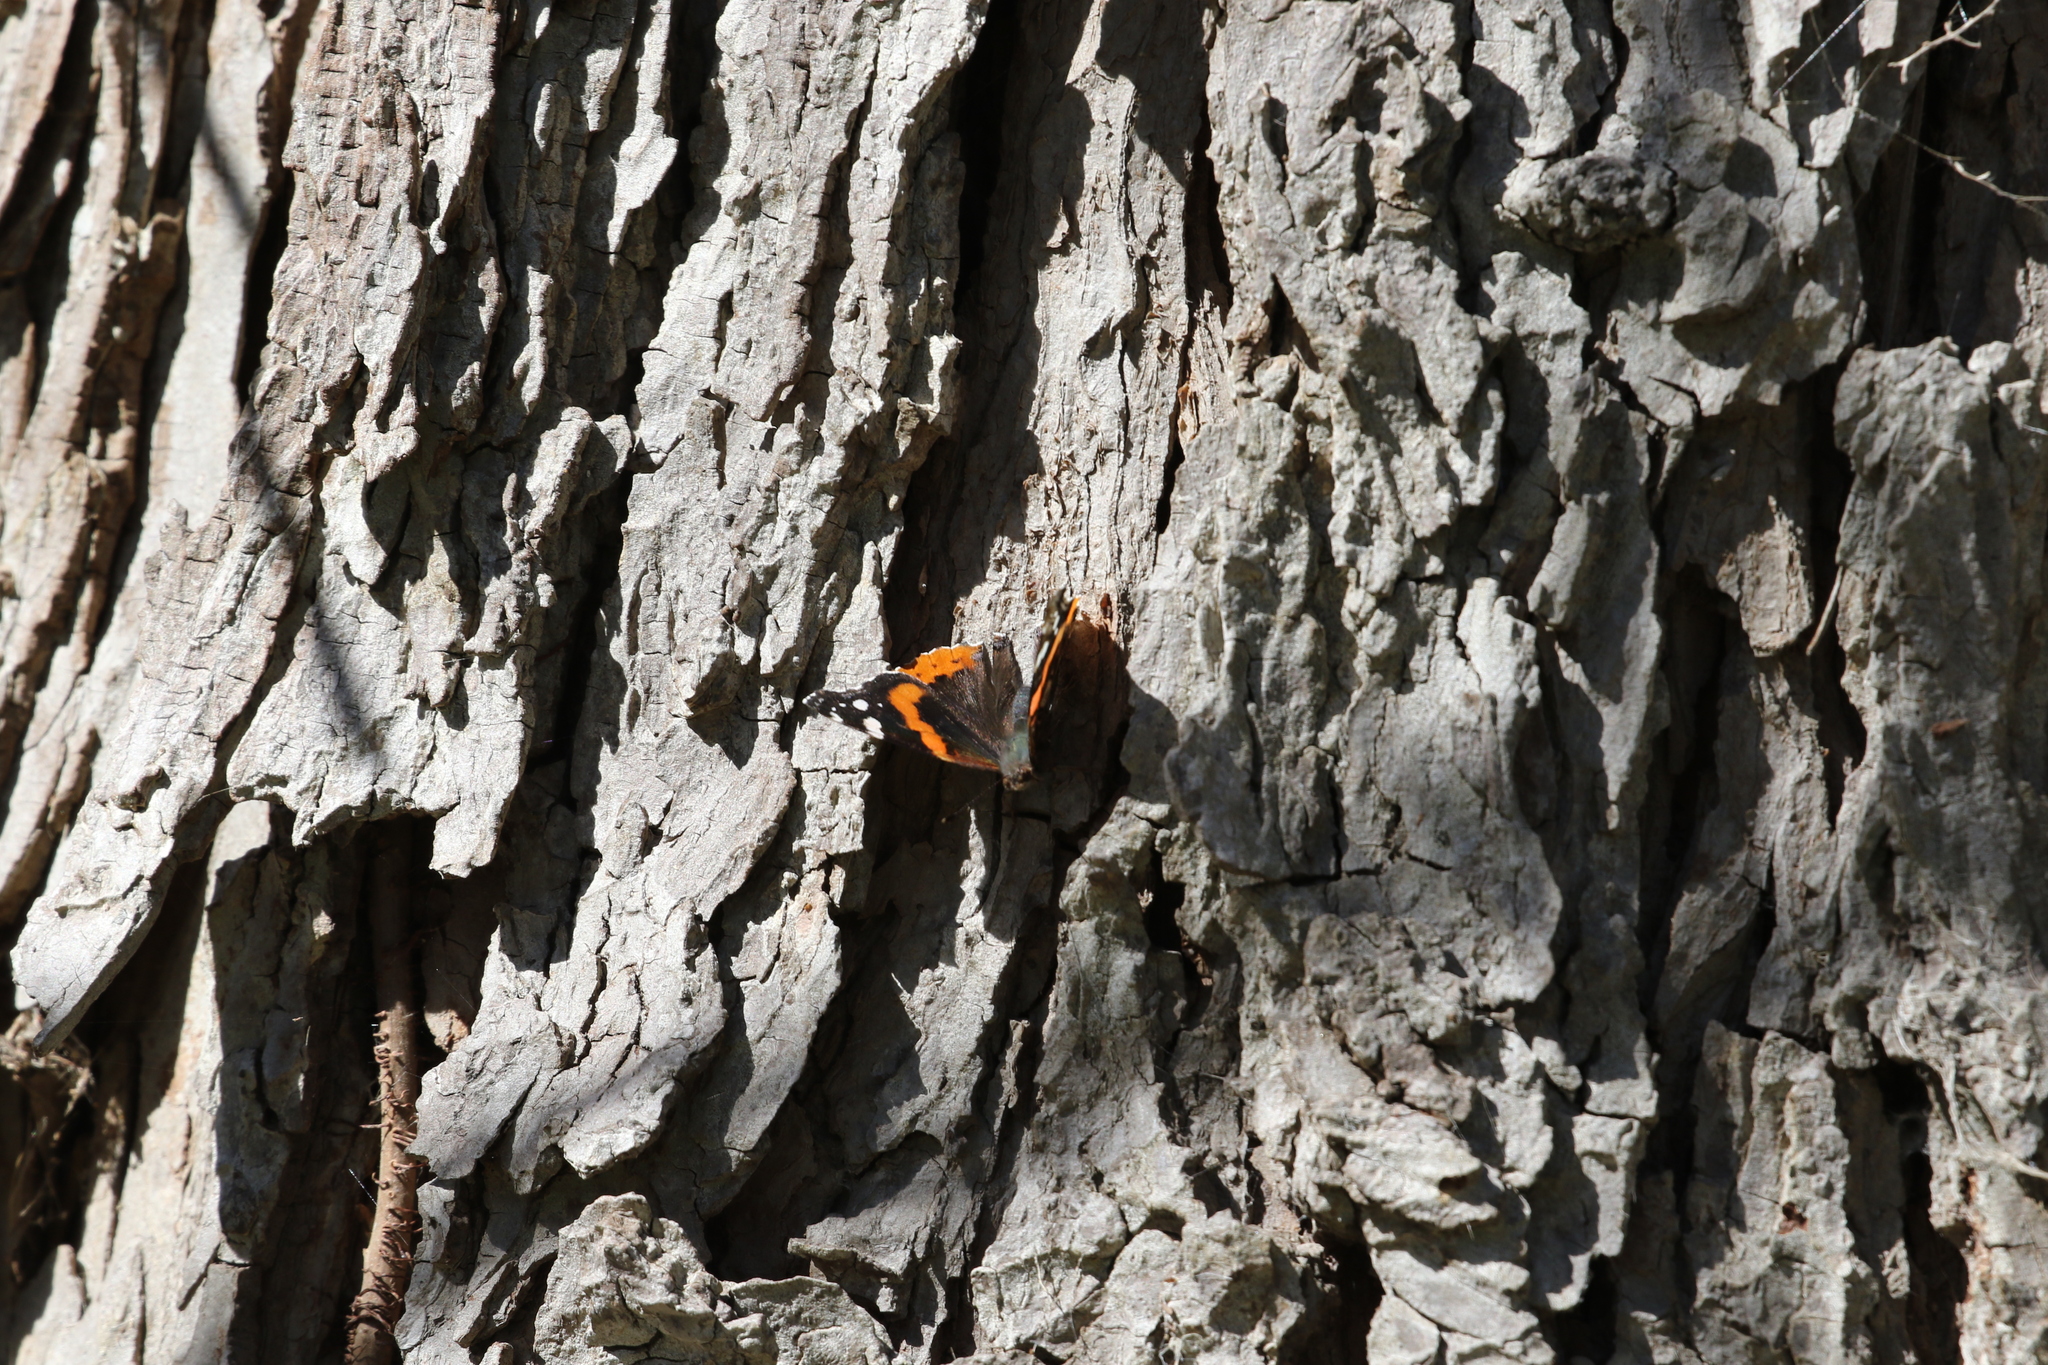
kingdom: Animalia
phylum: Arthropoda
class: Insecta
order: Lepidoptera
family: Nymphalidae
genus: Vanessa
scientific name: Vanessa atalanta
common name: Red admiral
